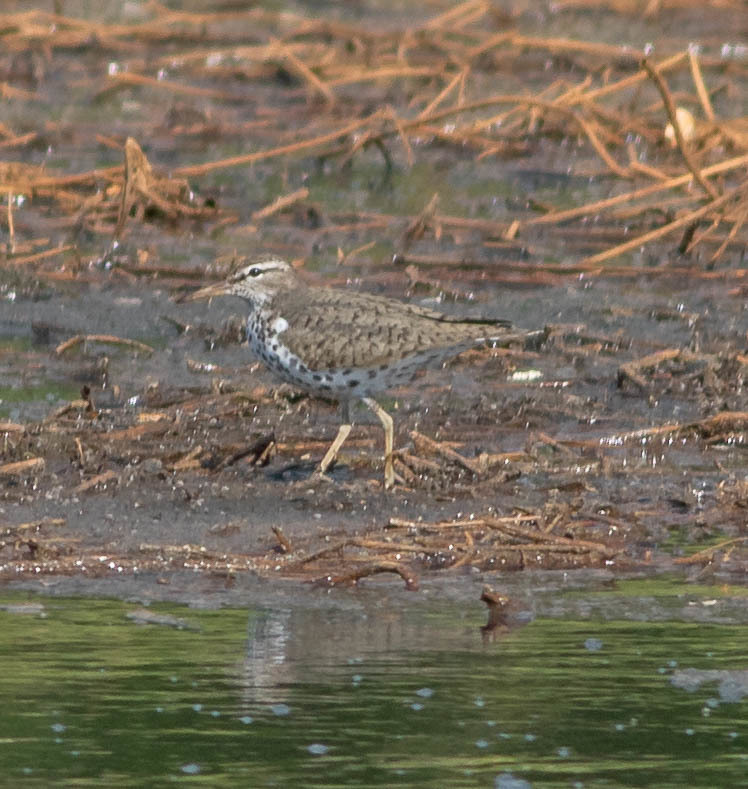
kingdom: Animalia
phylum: Chordata
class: Aves
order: Charadriiformes
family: Scolopacidae
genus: Actitis
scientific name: Actitis macularius
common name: Spotted sandpiper
